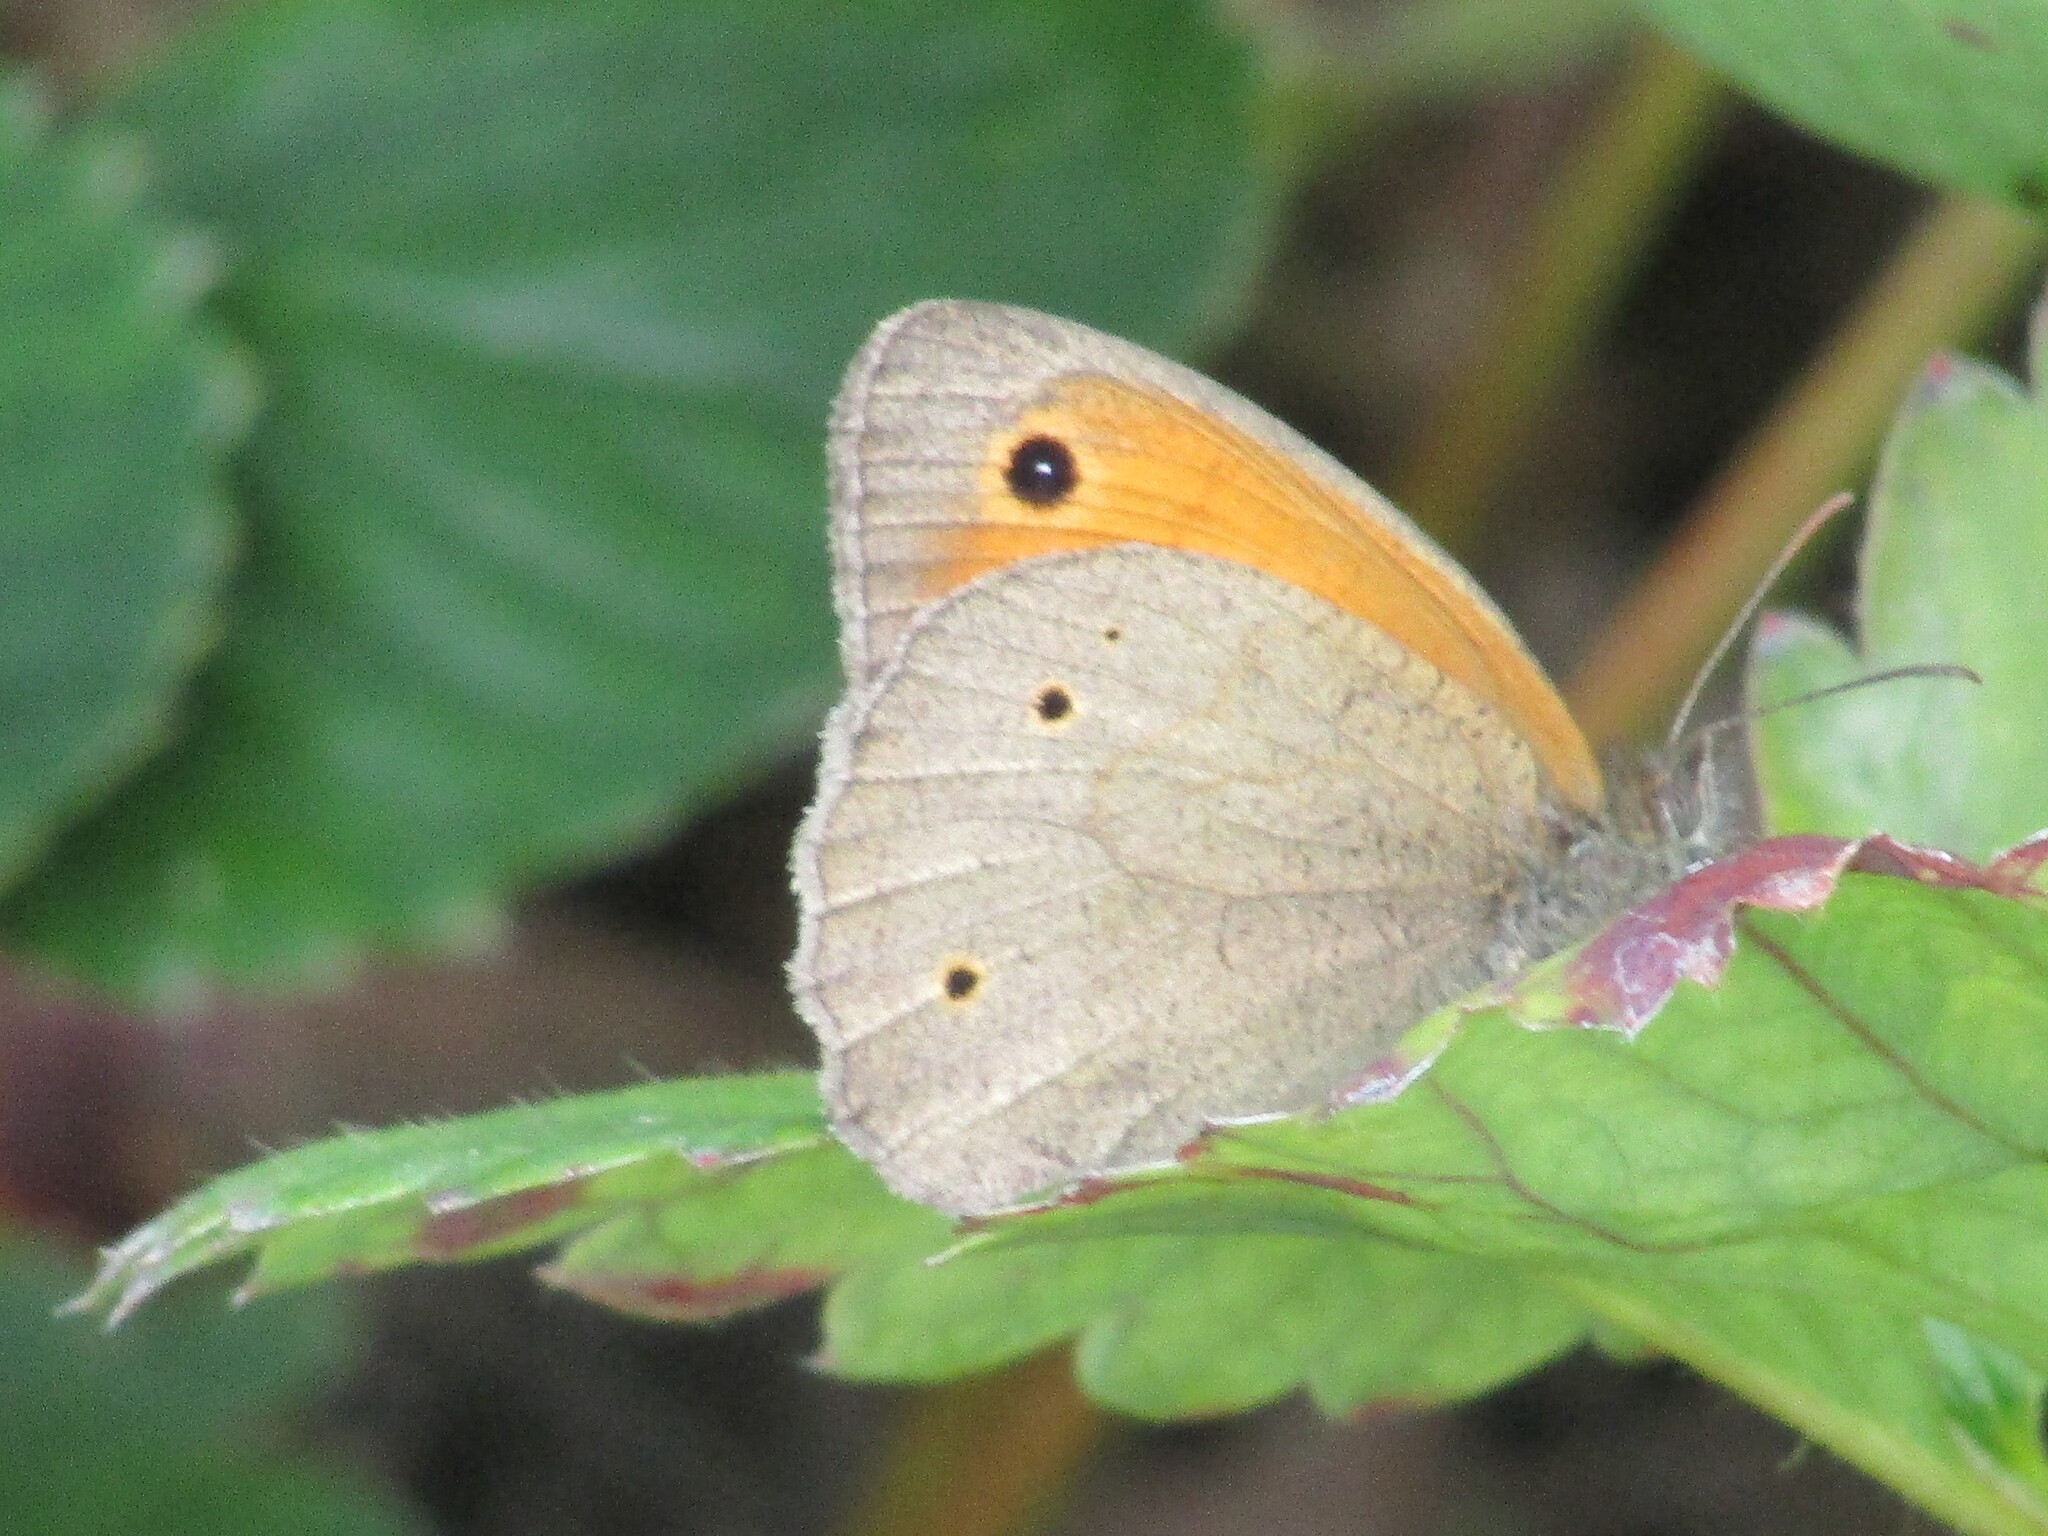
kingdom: Animalia
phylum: Arthropoda
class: Insecta
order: Lepidoptera
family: Nymphalidae
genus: Maniola
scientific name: Maniola jurtina
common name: Meadow brown
